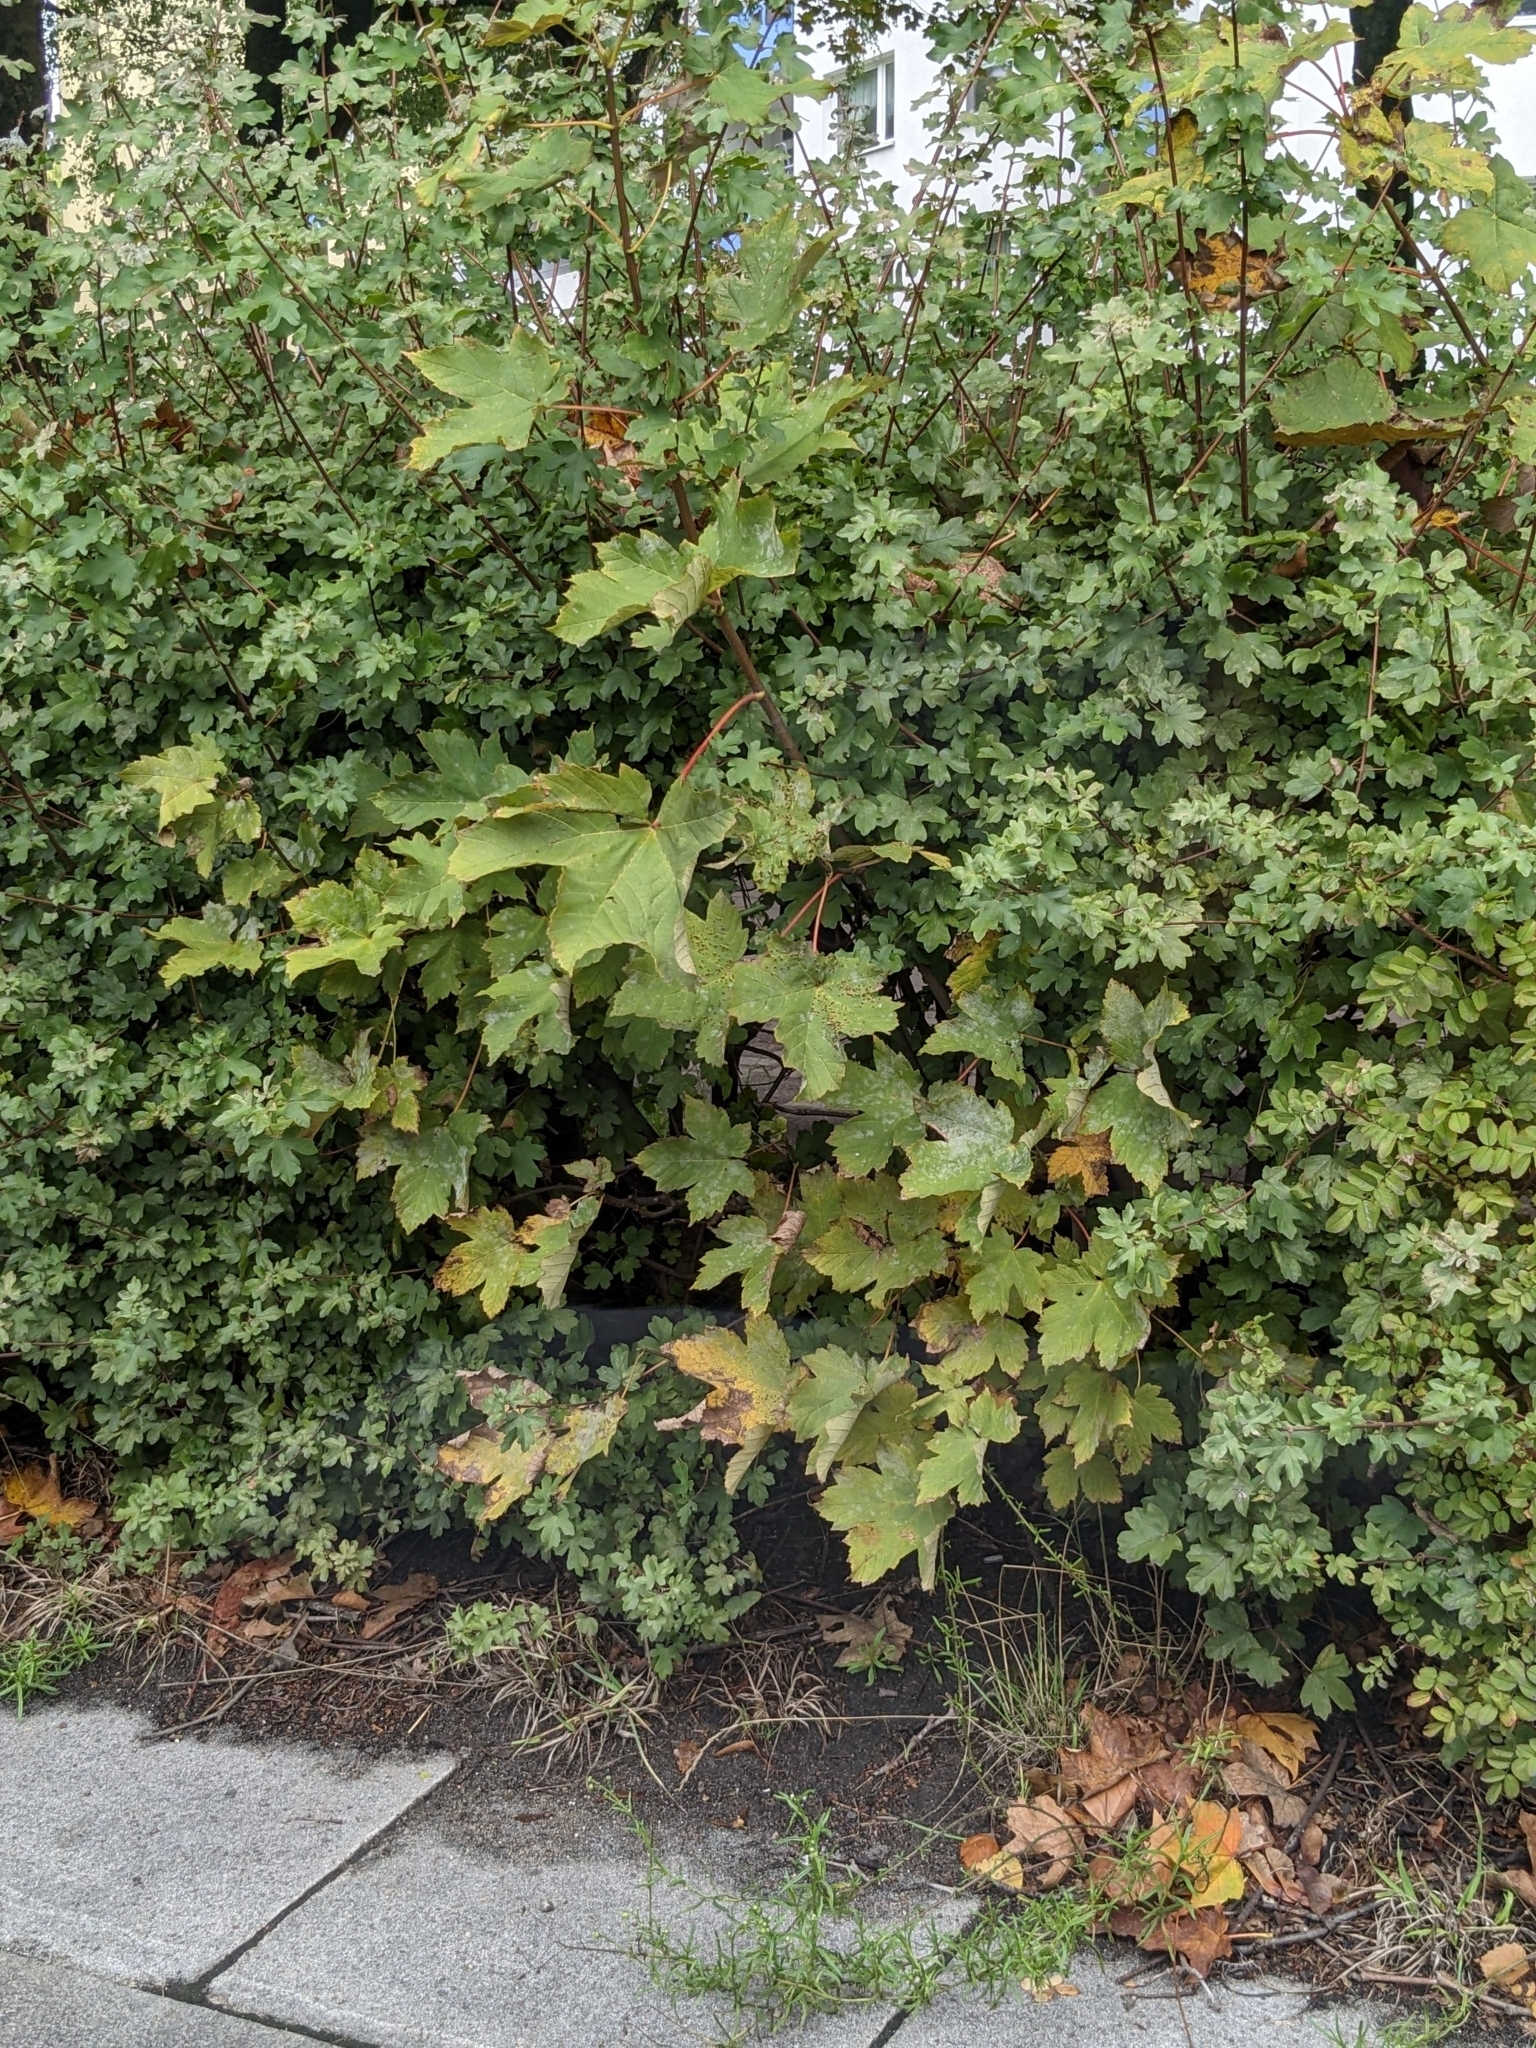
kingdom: Plantae
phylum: Tracheophyta
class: Magnoliopsida
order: Sapindales
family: Sapindaceae
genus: Acer
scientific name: Acer pseudoplatanus
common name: Sycamore
